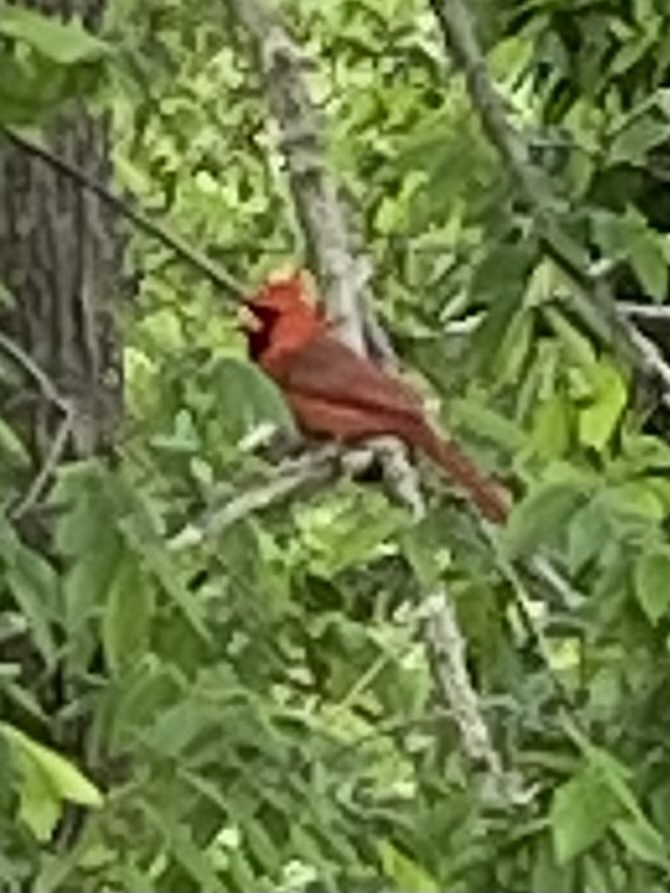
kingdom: Animalia
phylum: Chordata
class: Aves
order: Passeriformes
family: Cardinalidae
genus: Cardinalis
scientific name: Cardinalis cardinalis
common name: Northern cardinal
